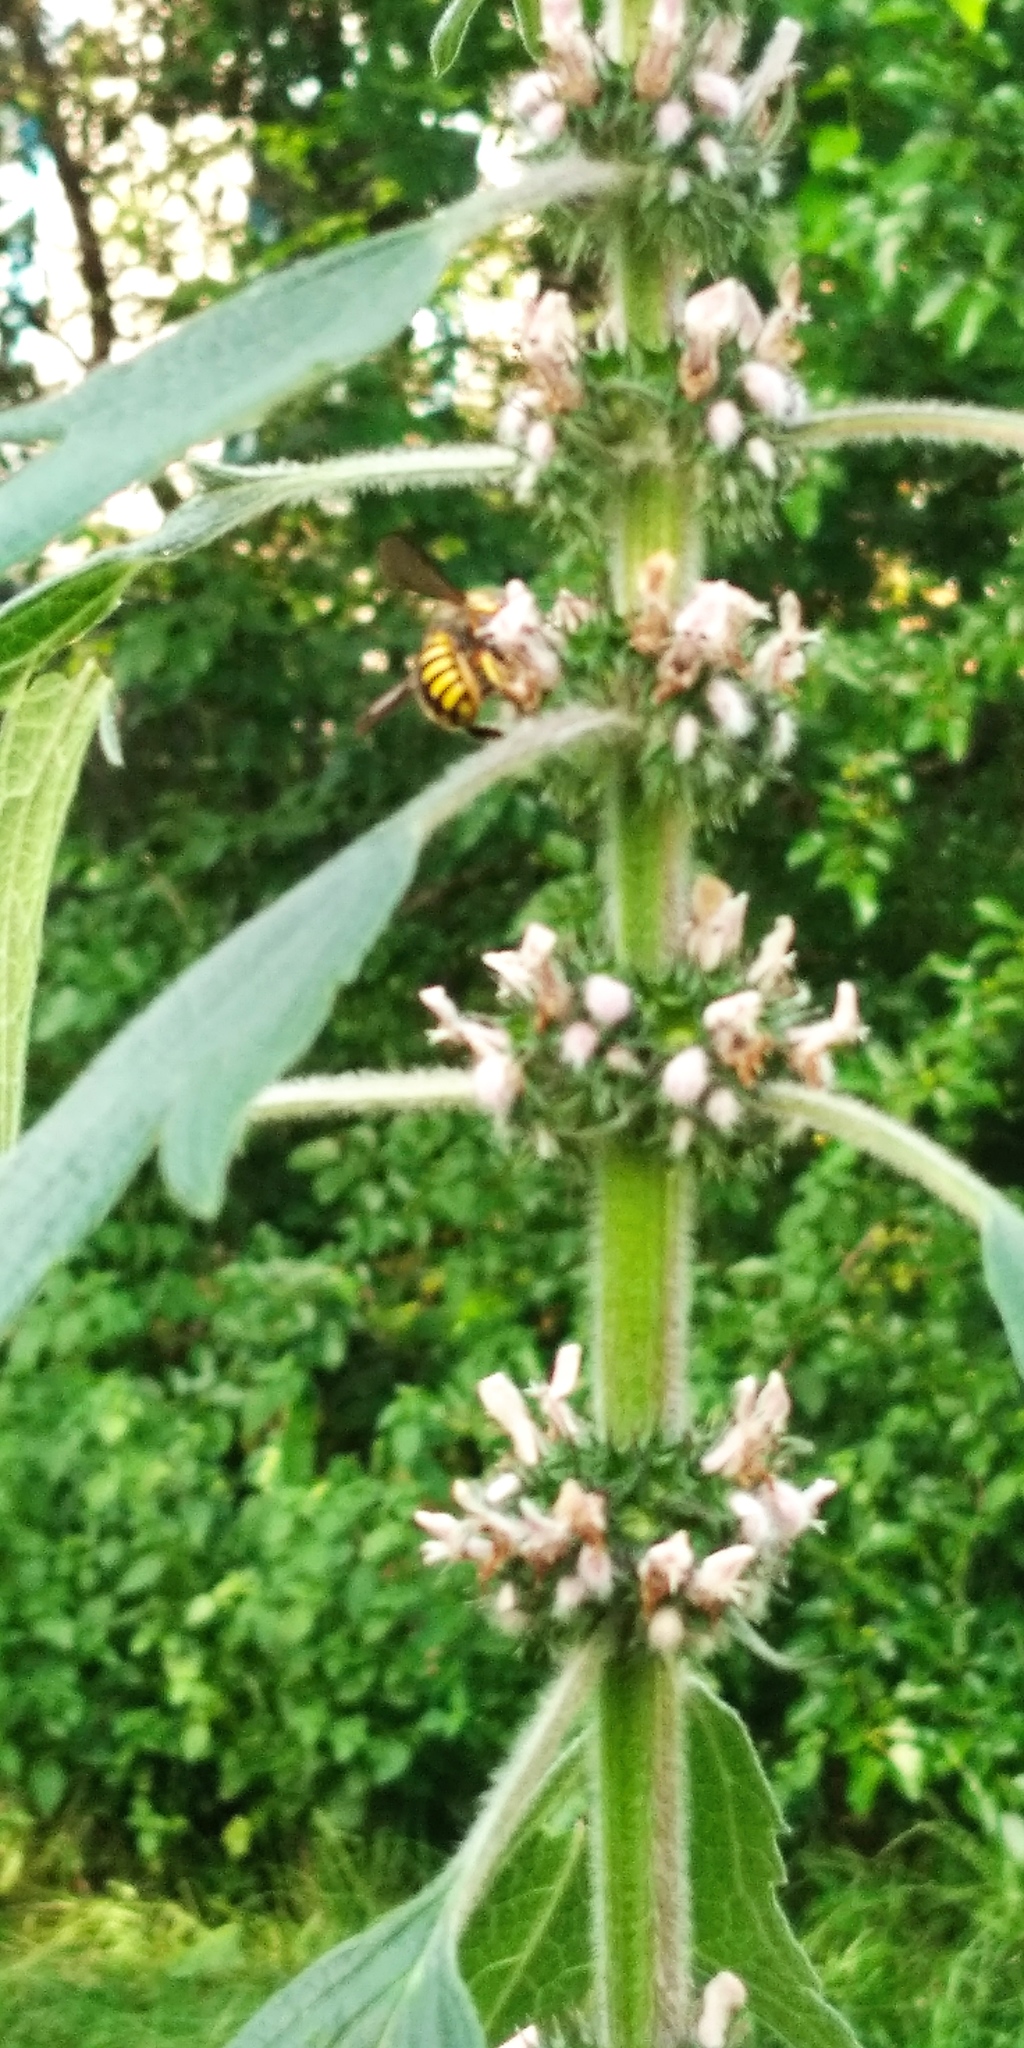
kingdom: Animalia
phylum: Arthropoda
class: Insecta
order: Hymenoptera
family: Megachilidae
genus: Anthidium
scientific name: Anthidium manicatum
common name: Wool carder bee
